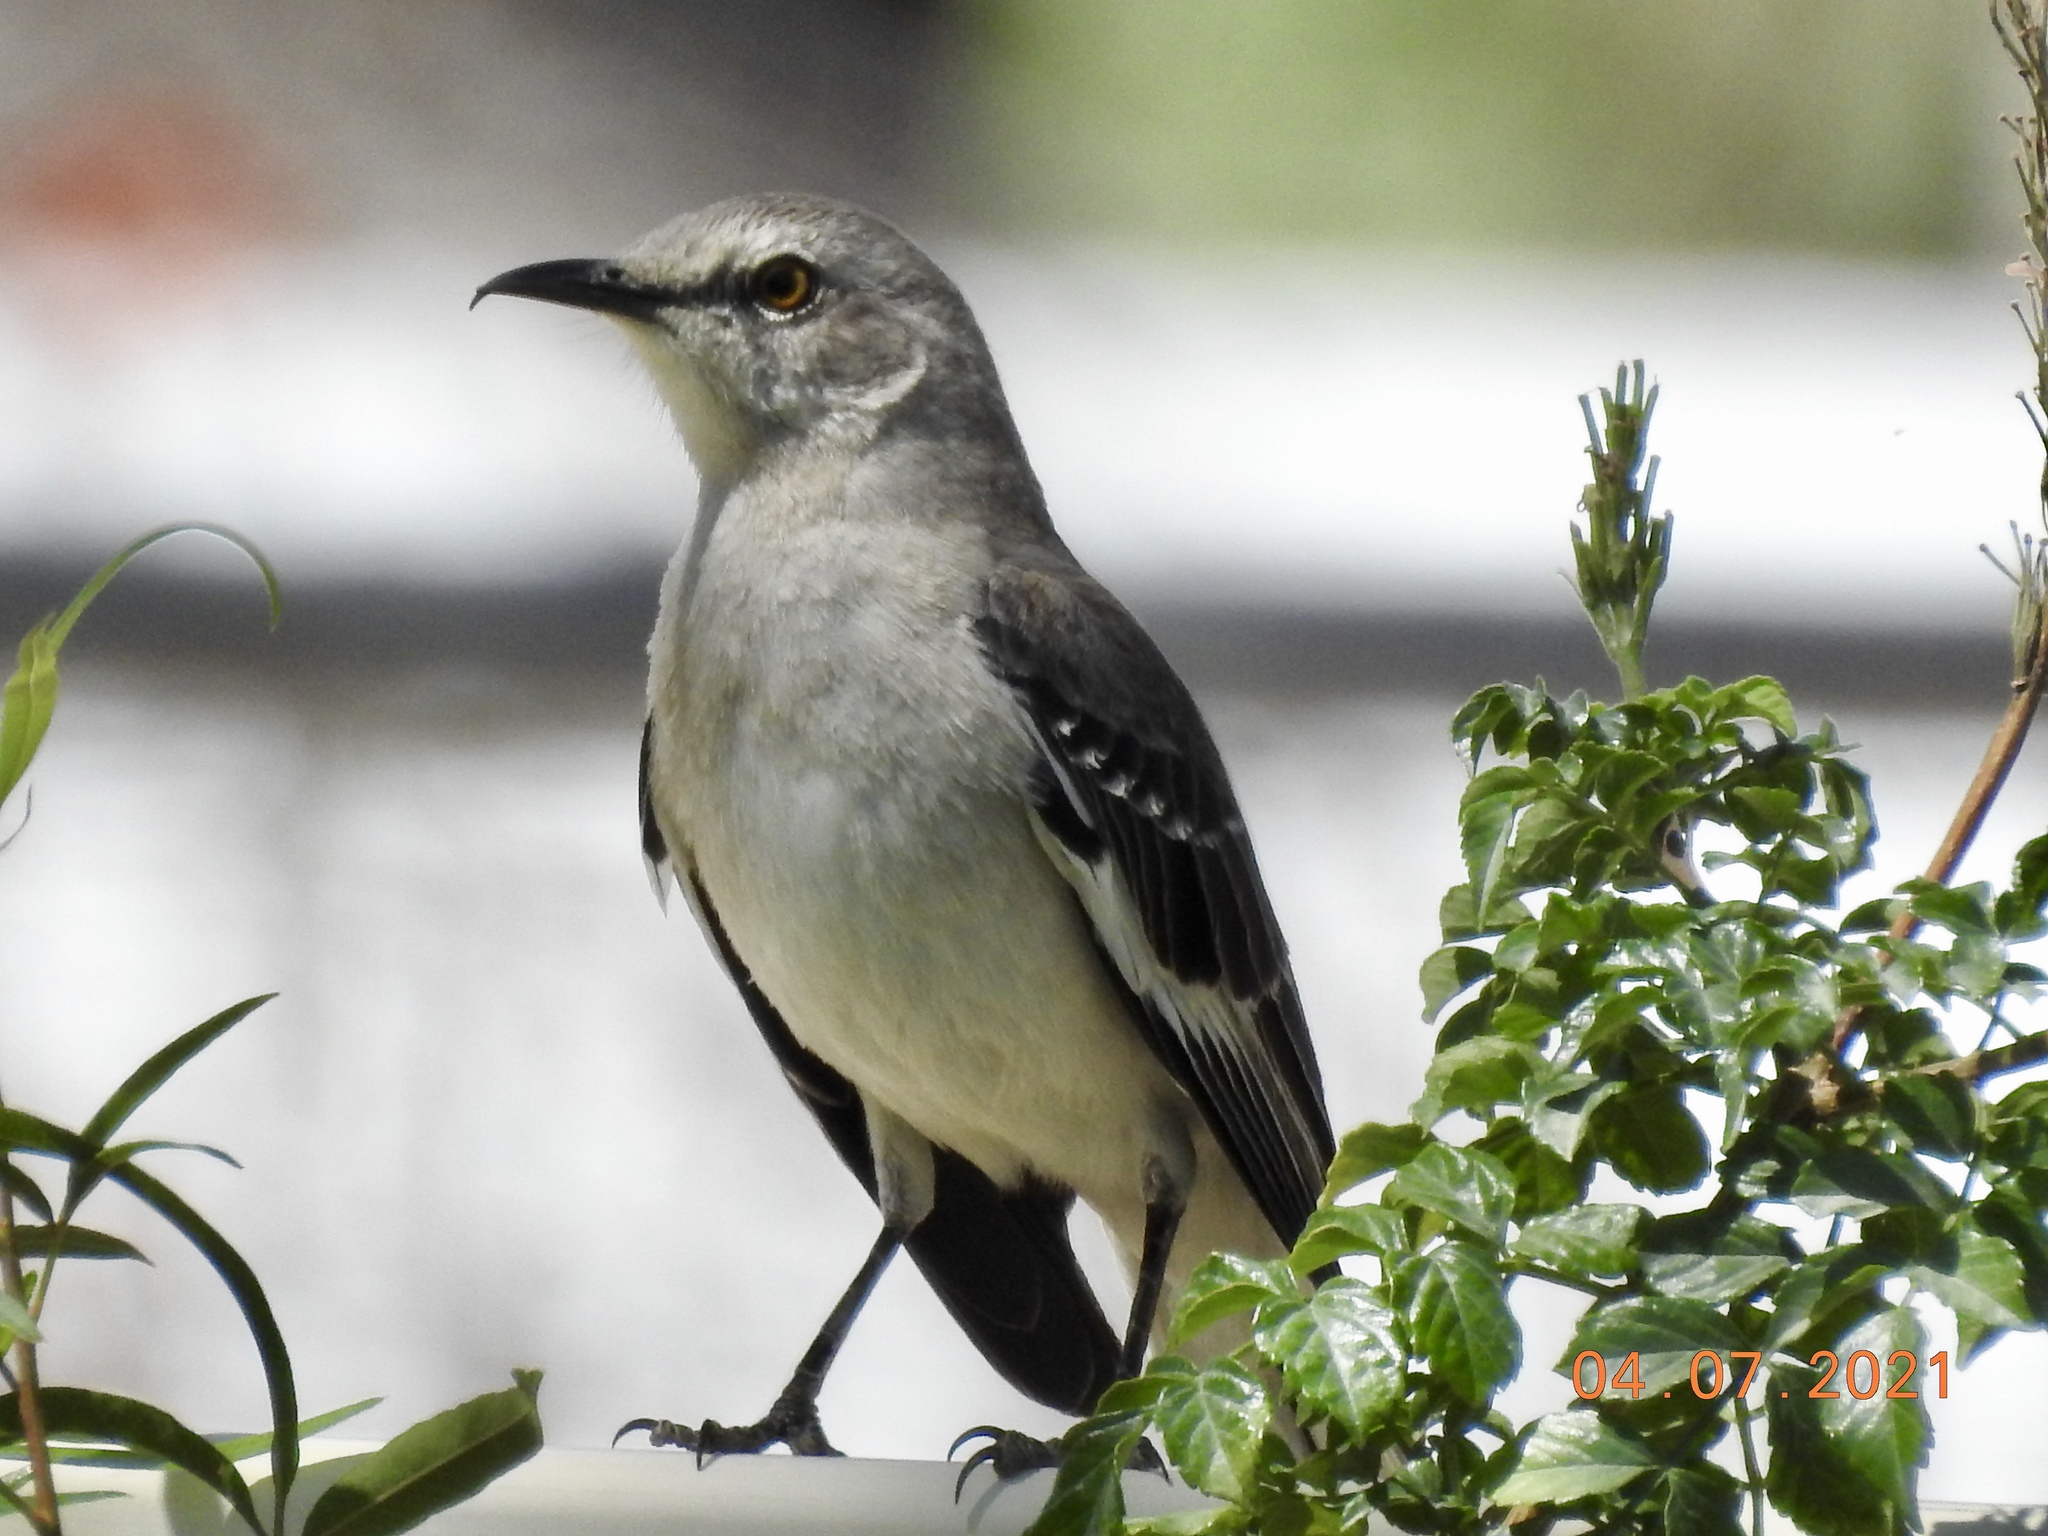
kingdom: Animalia
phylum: Chordata
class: Aves
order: Passeriformes
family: Mimidae
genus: Mimus
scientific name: Mimus polyglottos
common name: Northern mockingbird
